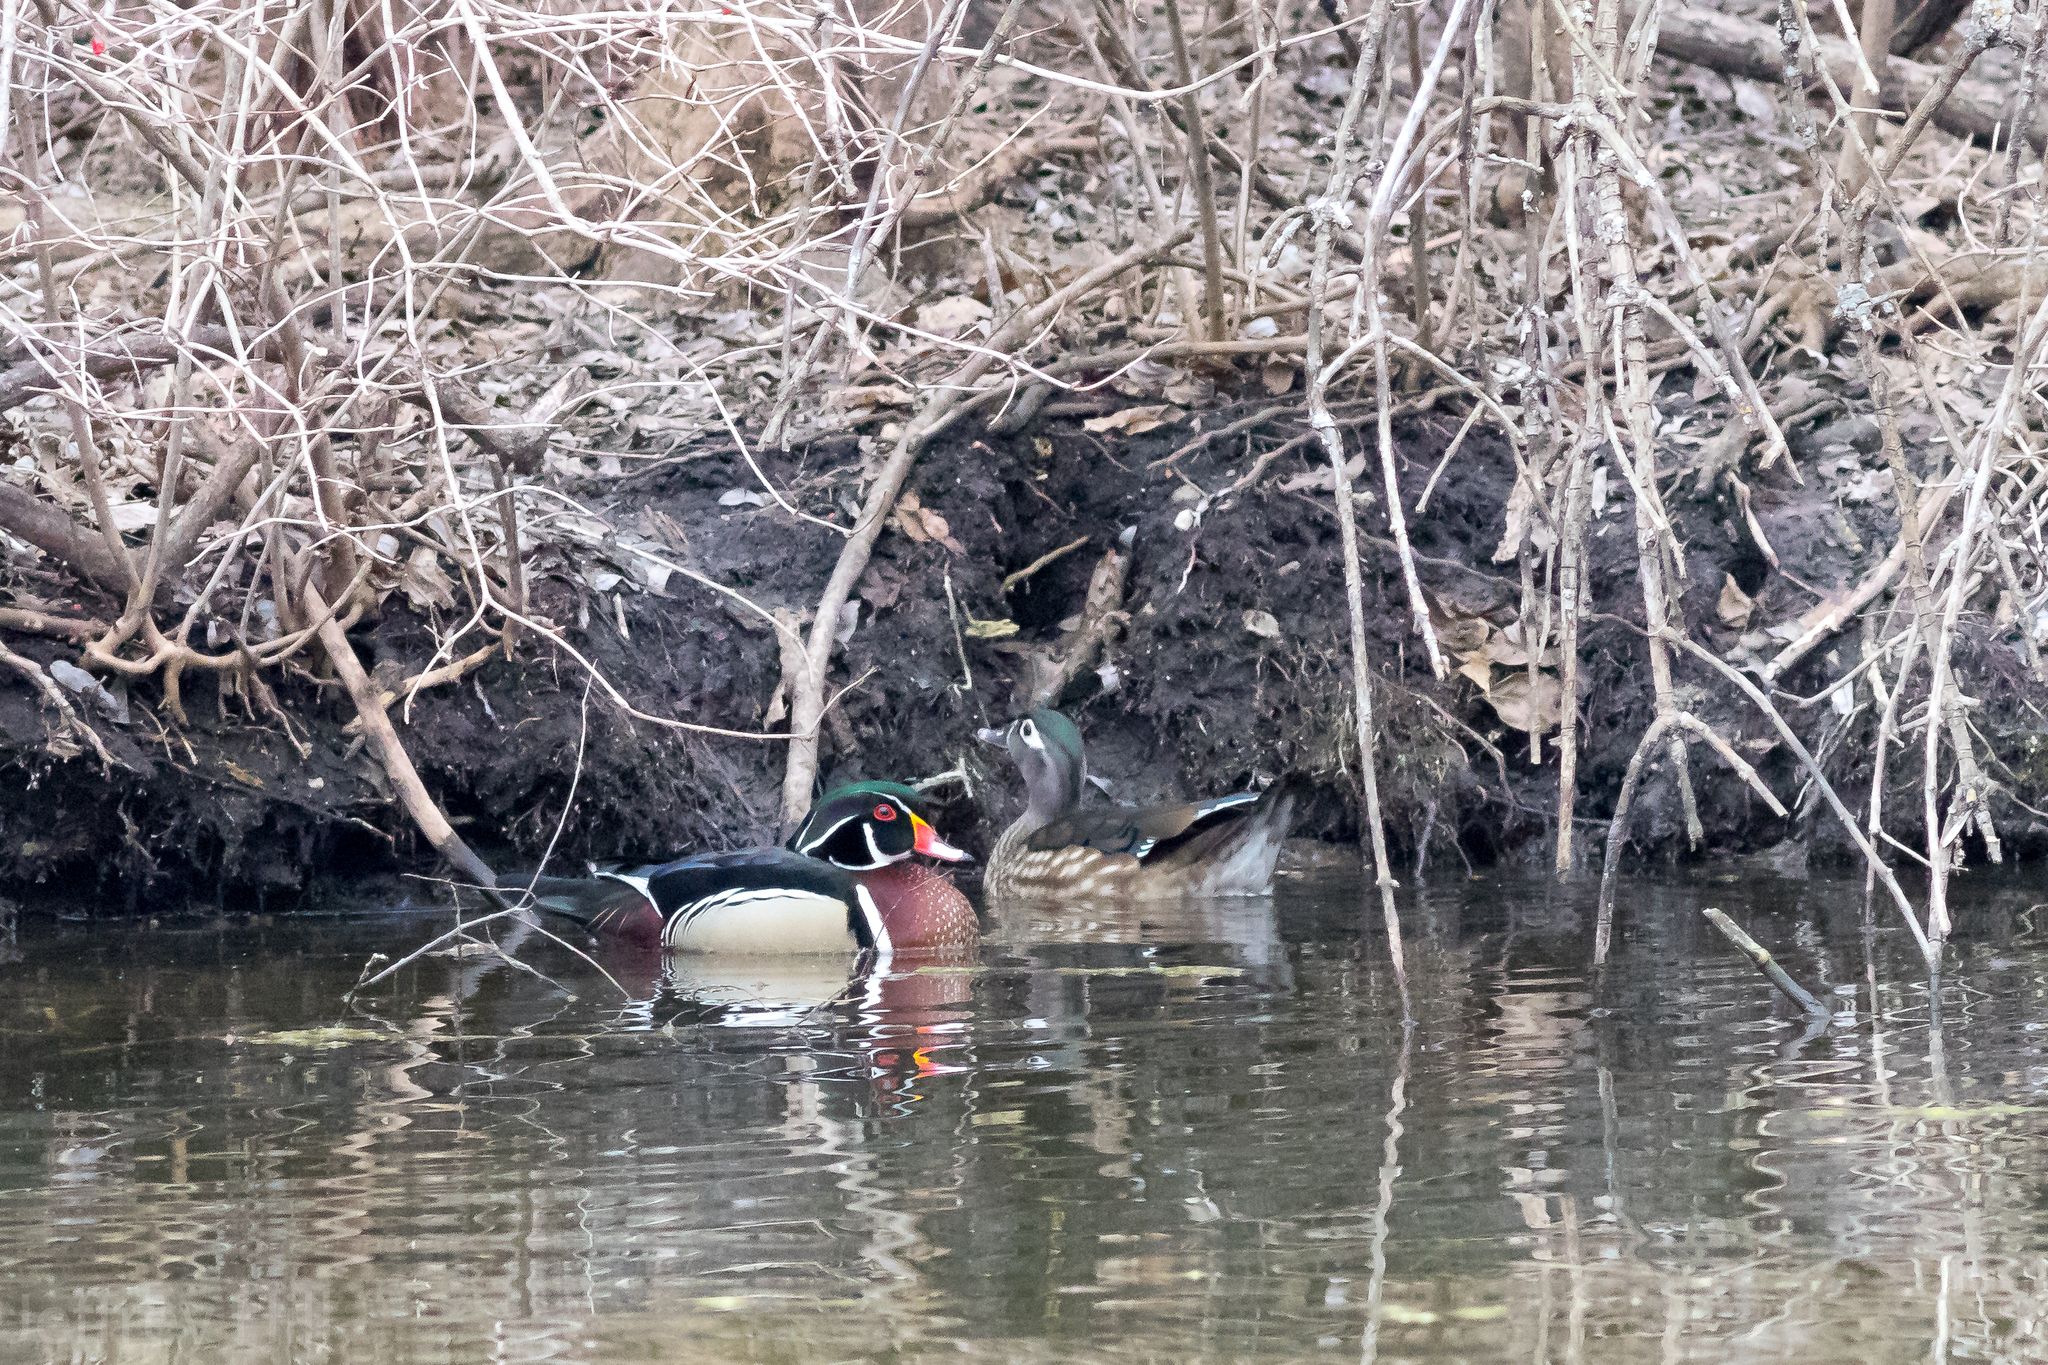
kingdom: Animalia
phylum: Chordata
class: Aves
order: Anseriformes
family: Anatidae
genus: Aix
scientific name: Aix sponsa
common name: Wood duck
